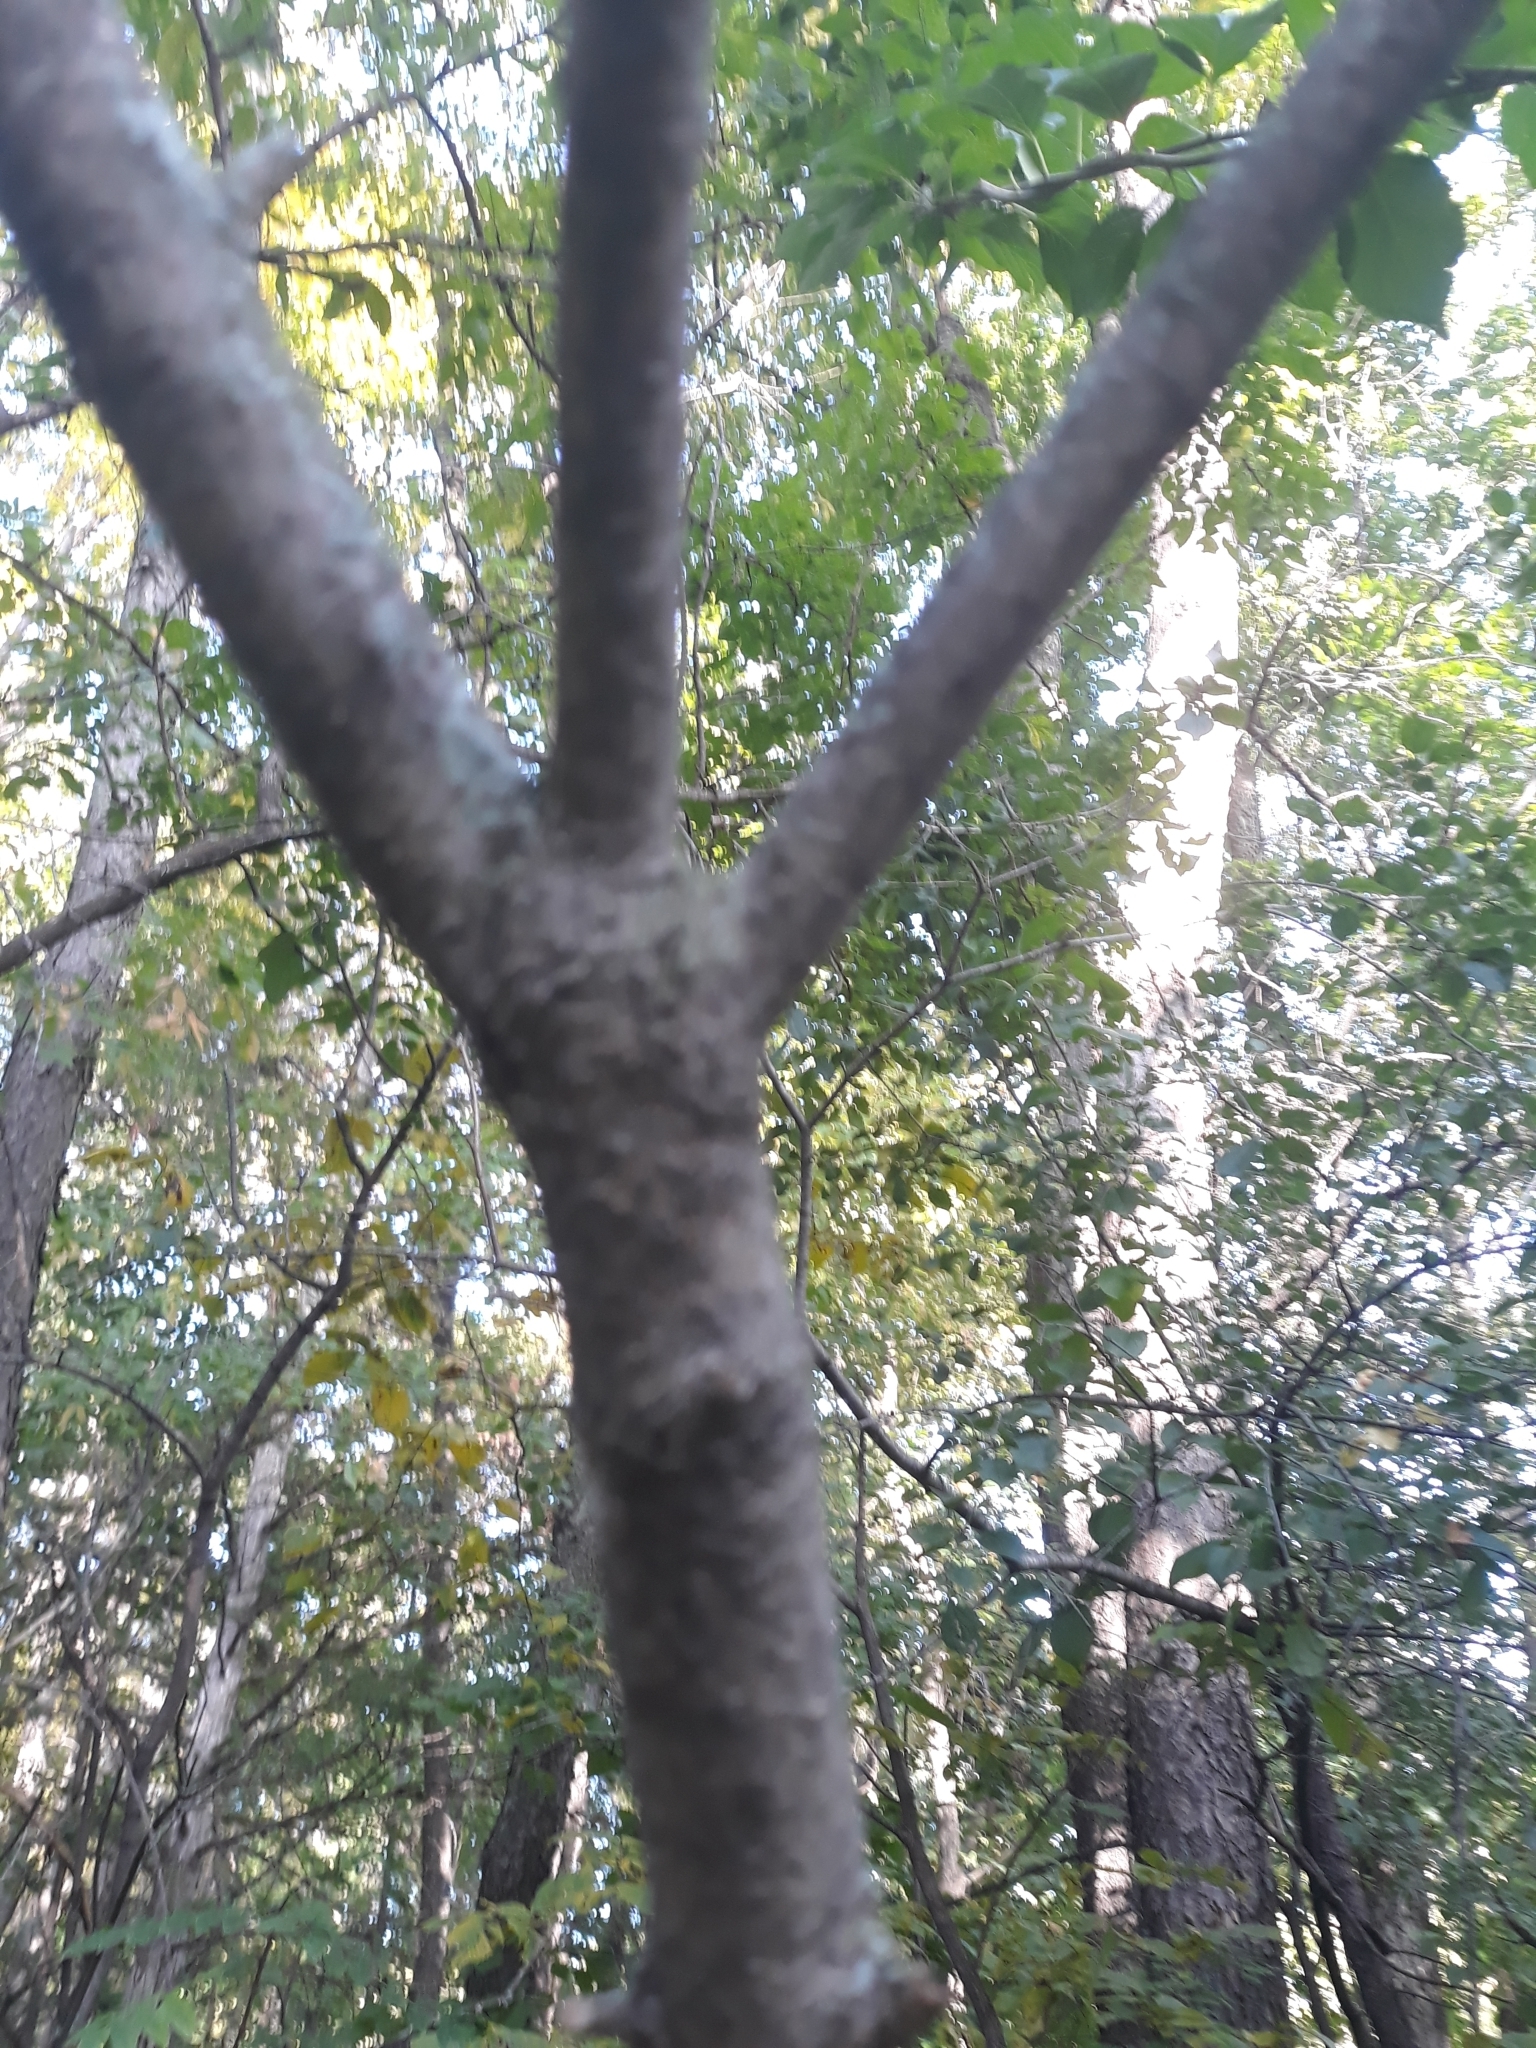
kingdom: Plantae
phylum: Tracheophyta
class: Magnoliopsida
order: Celastrales
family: Celastraceae
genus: Celastrus
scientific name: Celastrus scandens
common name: American bittersweet
